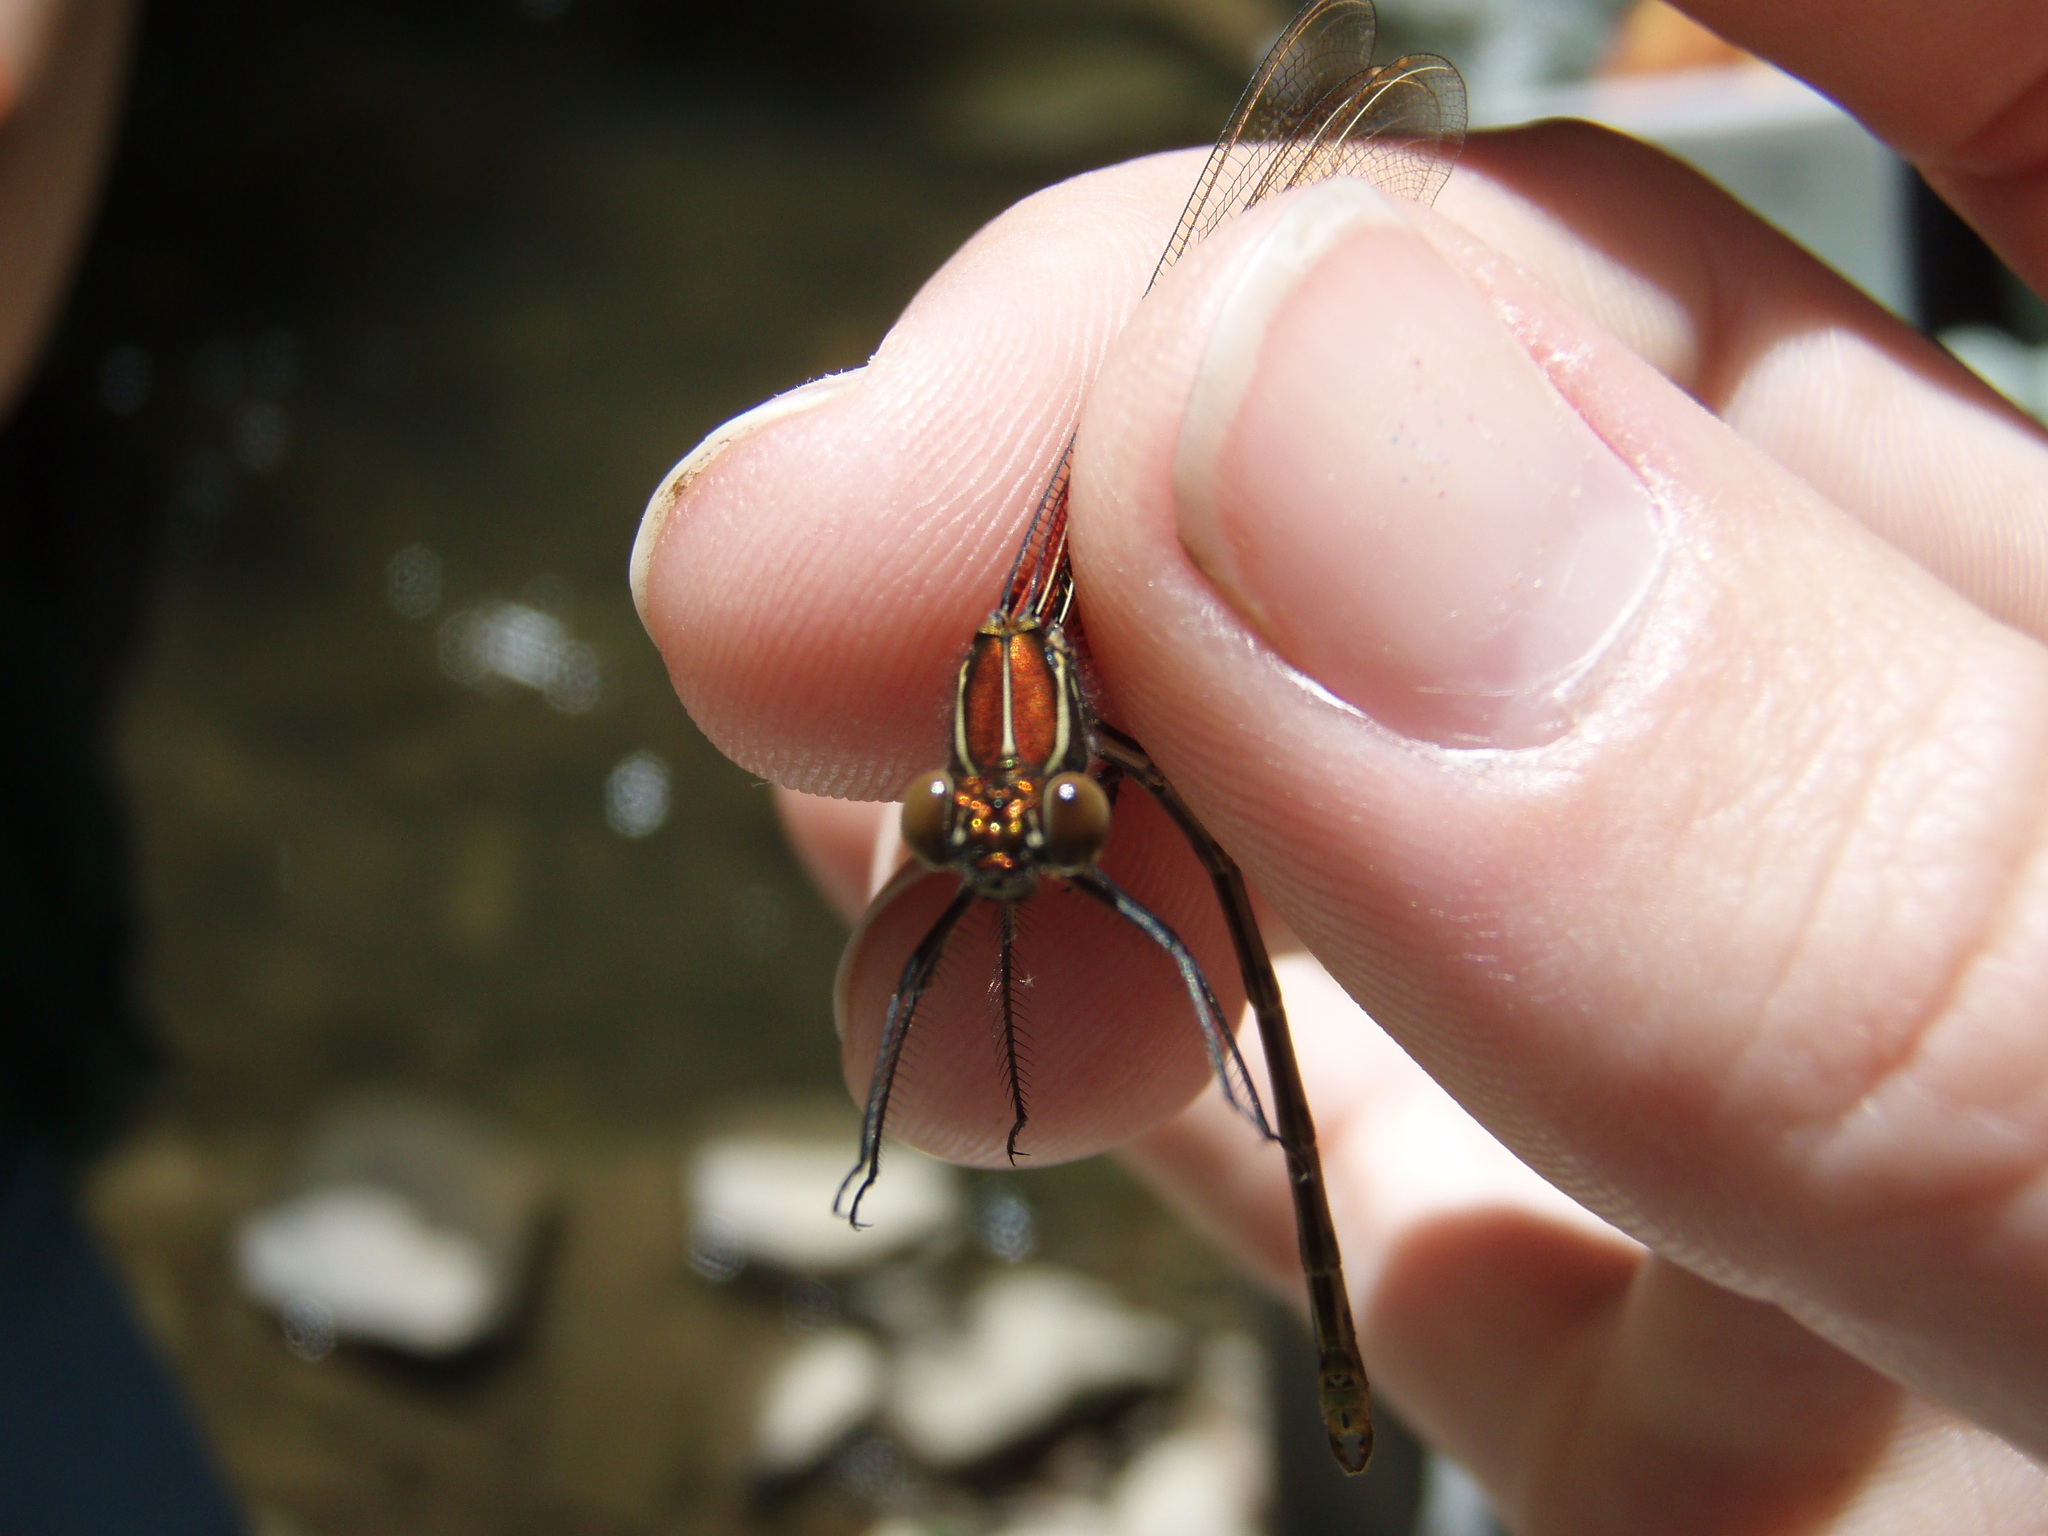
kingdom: Animalia
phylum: Arthropoda
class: Insecta
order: Odonata
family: Calopterygidae
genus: Hetaerina
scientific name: Hetaerina americana
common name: American rubyspot
